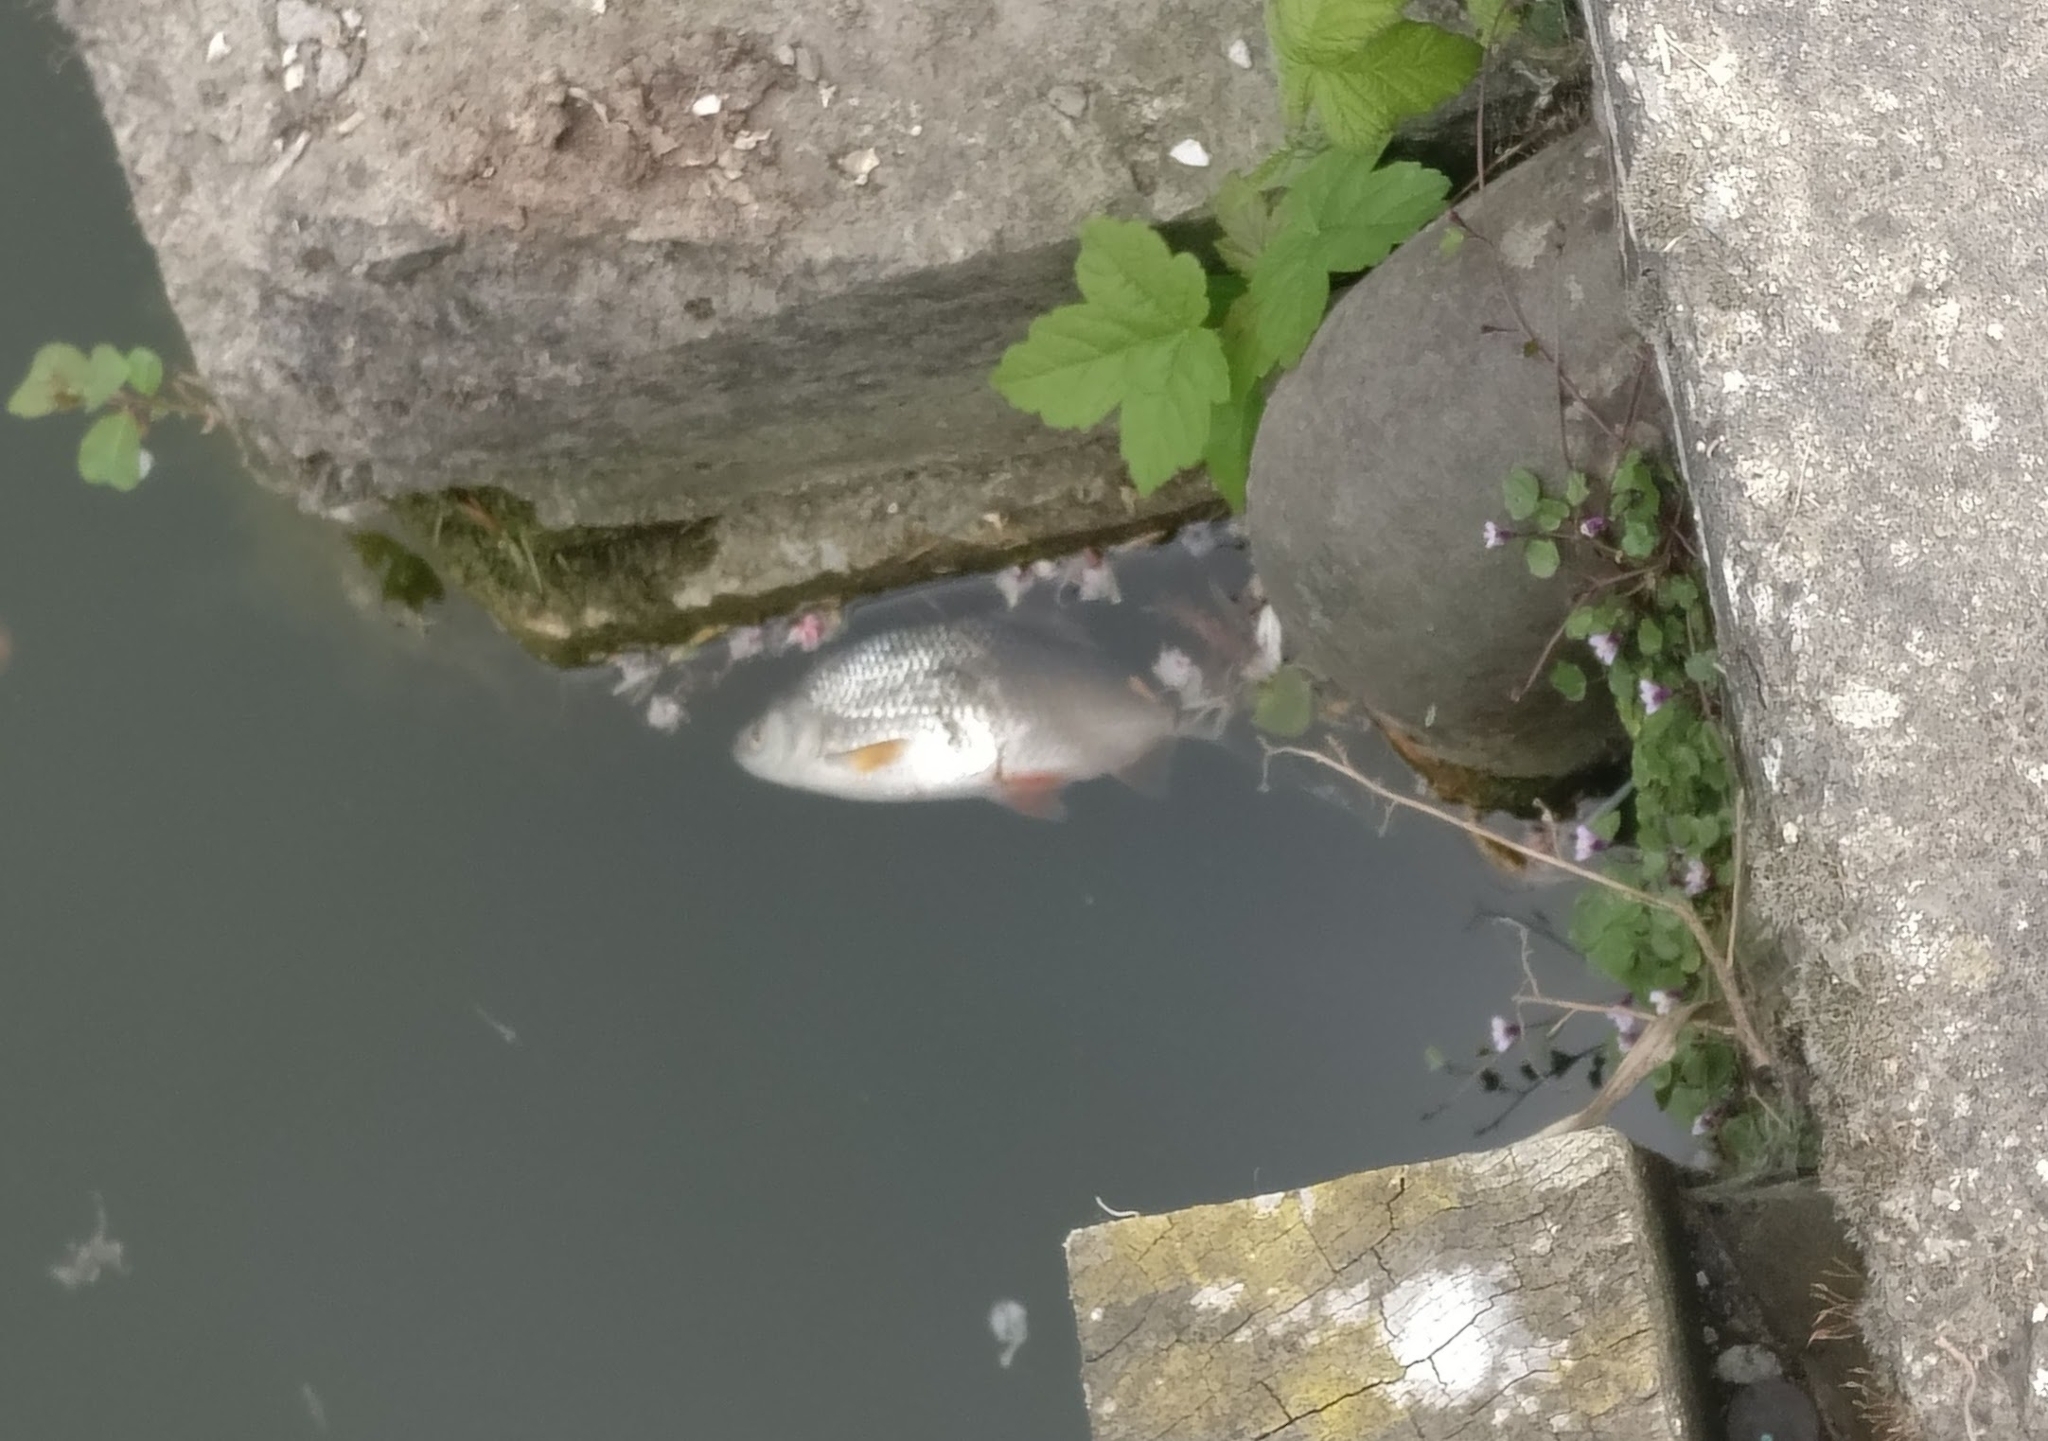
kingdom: Animalia
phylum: Chordata
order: Cypriniformes
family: Cyprinidae
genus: Rutilus
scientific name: Rutilus rutilus
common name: Roach
